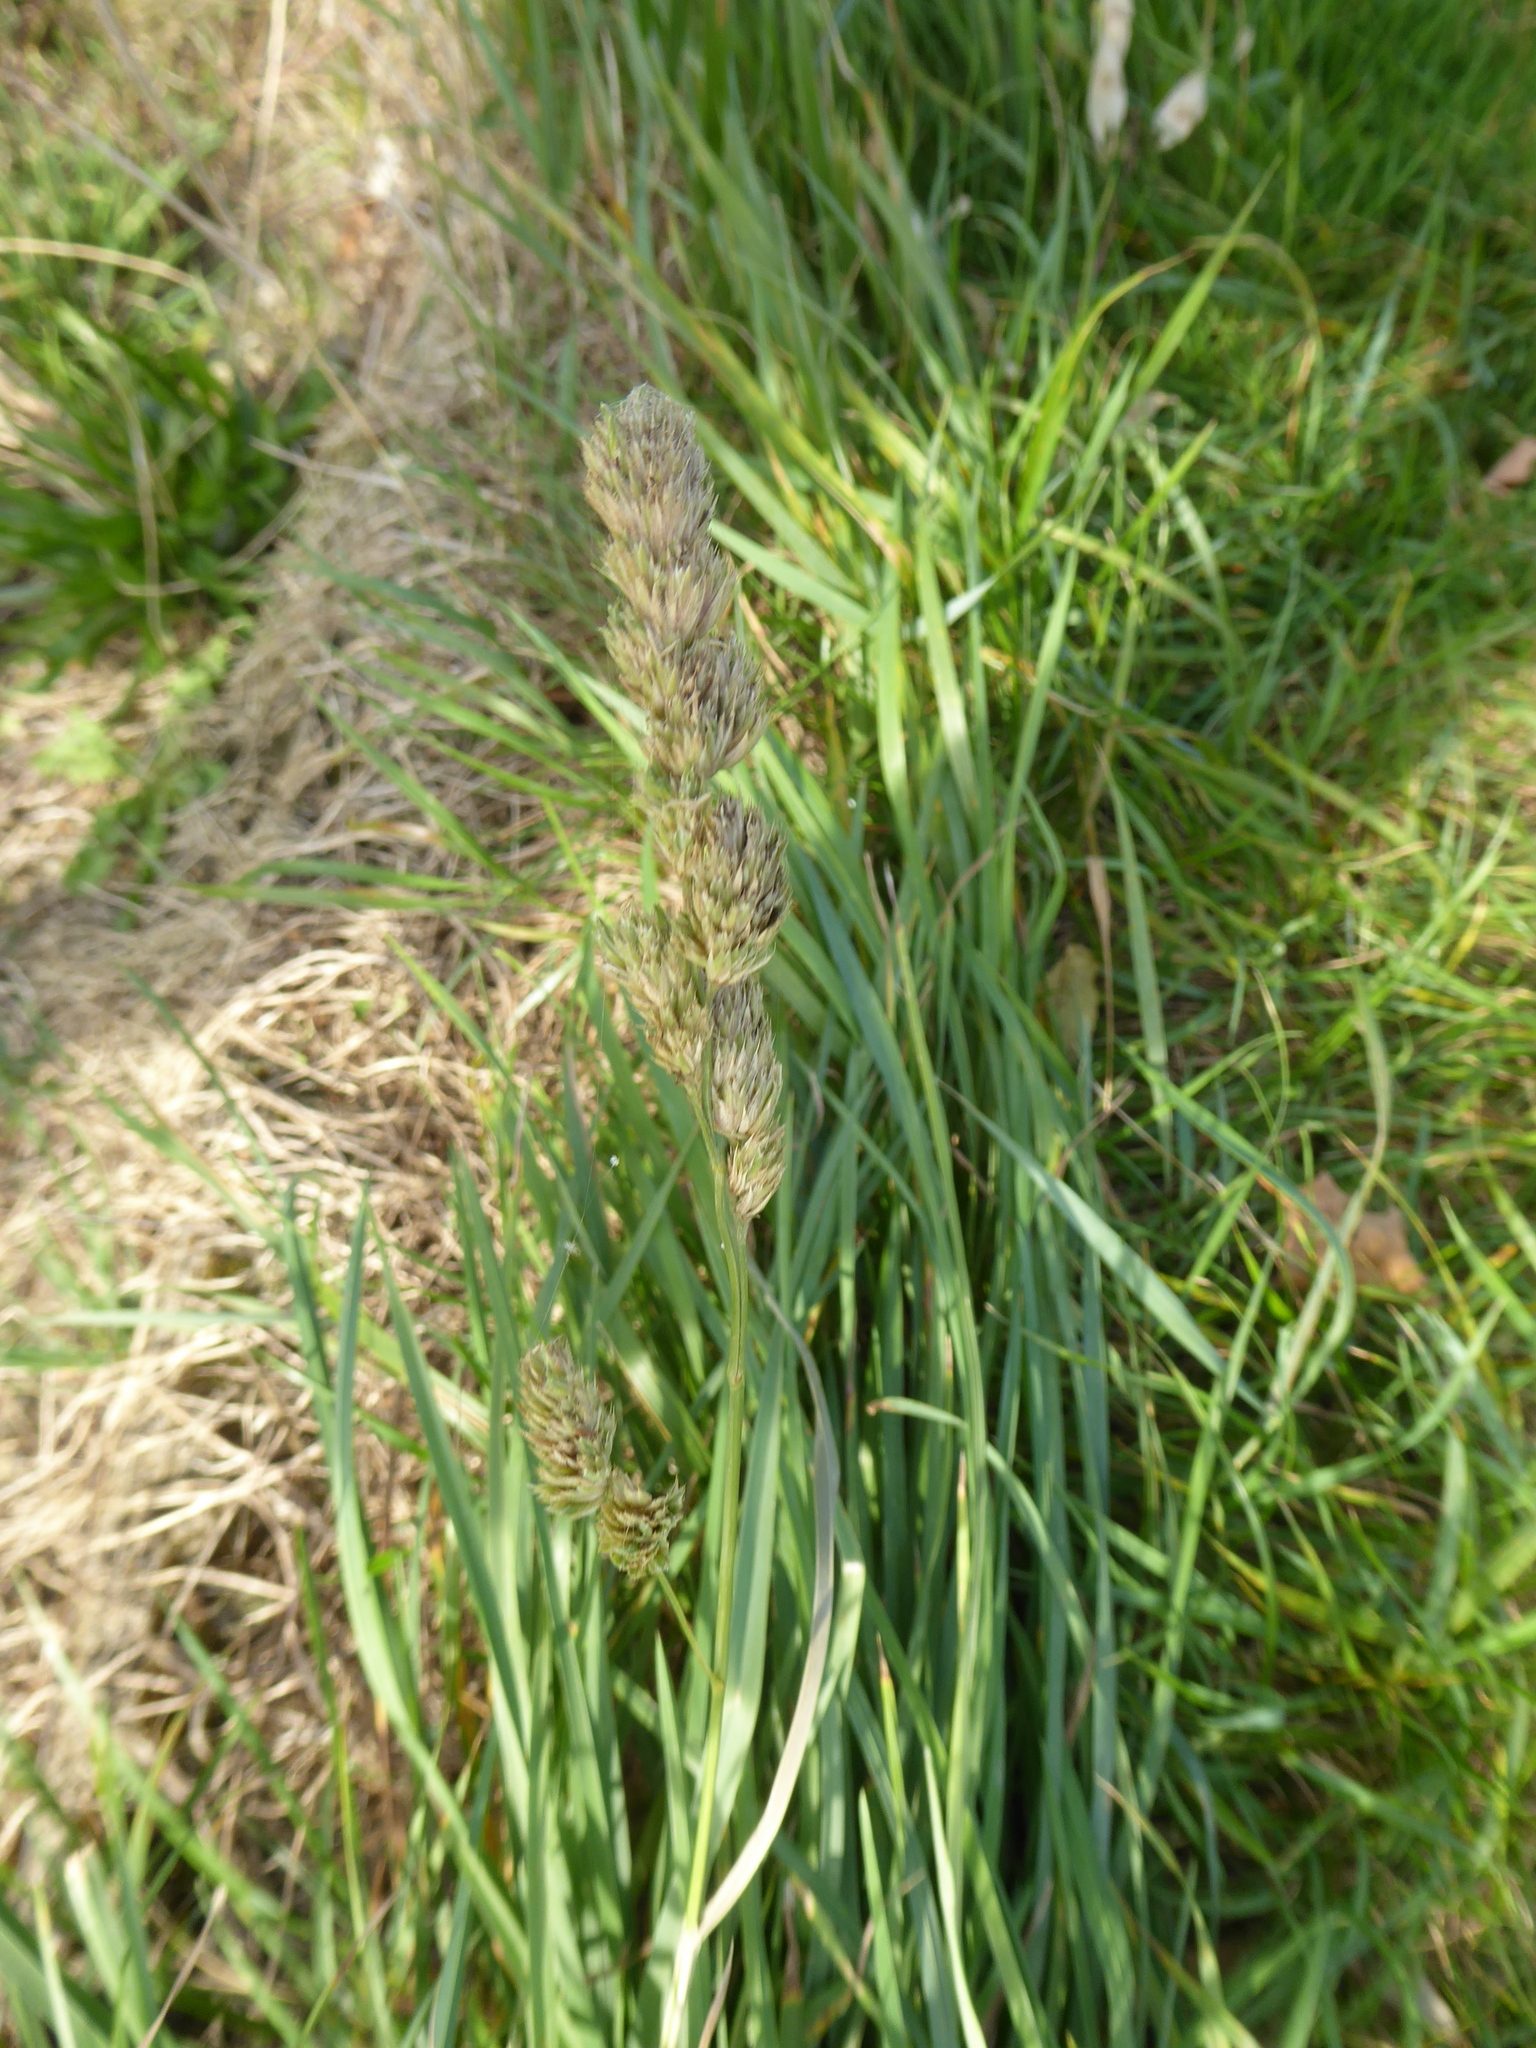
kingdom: Plantae
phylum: Tracheophyta
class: Liliopsida
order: Poales
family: Poaceae
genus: Dactylis
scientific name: Dactylis glomerata
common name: Orchardgrass
